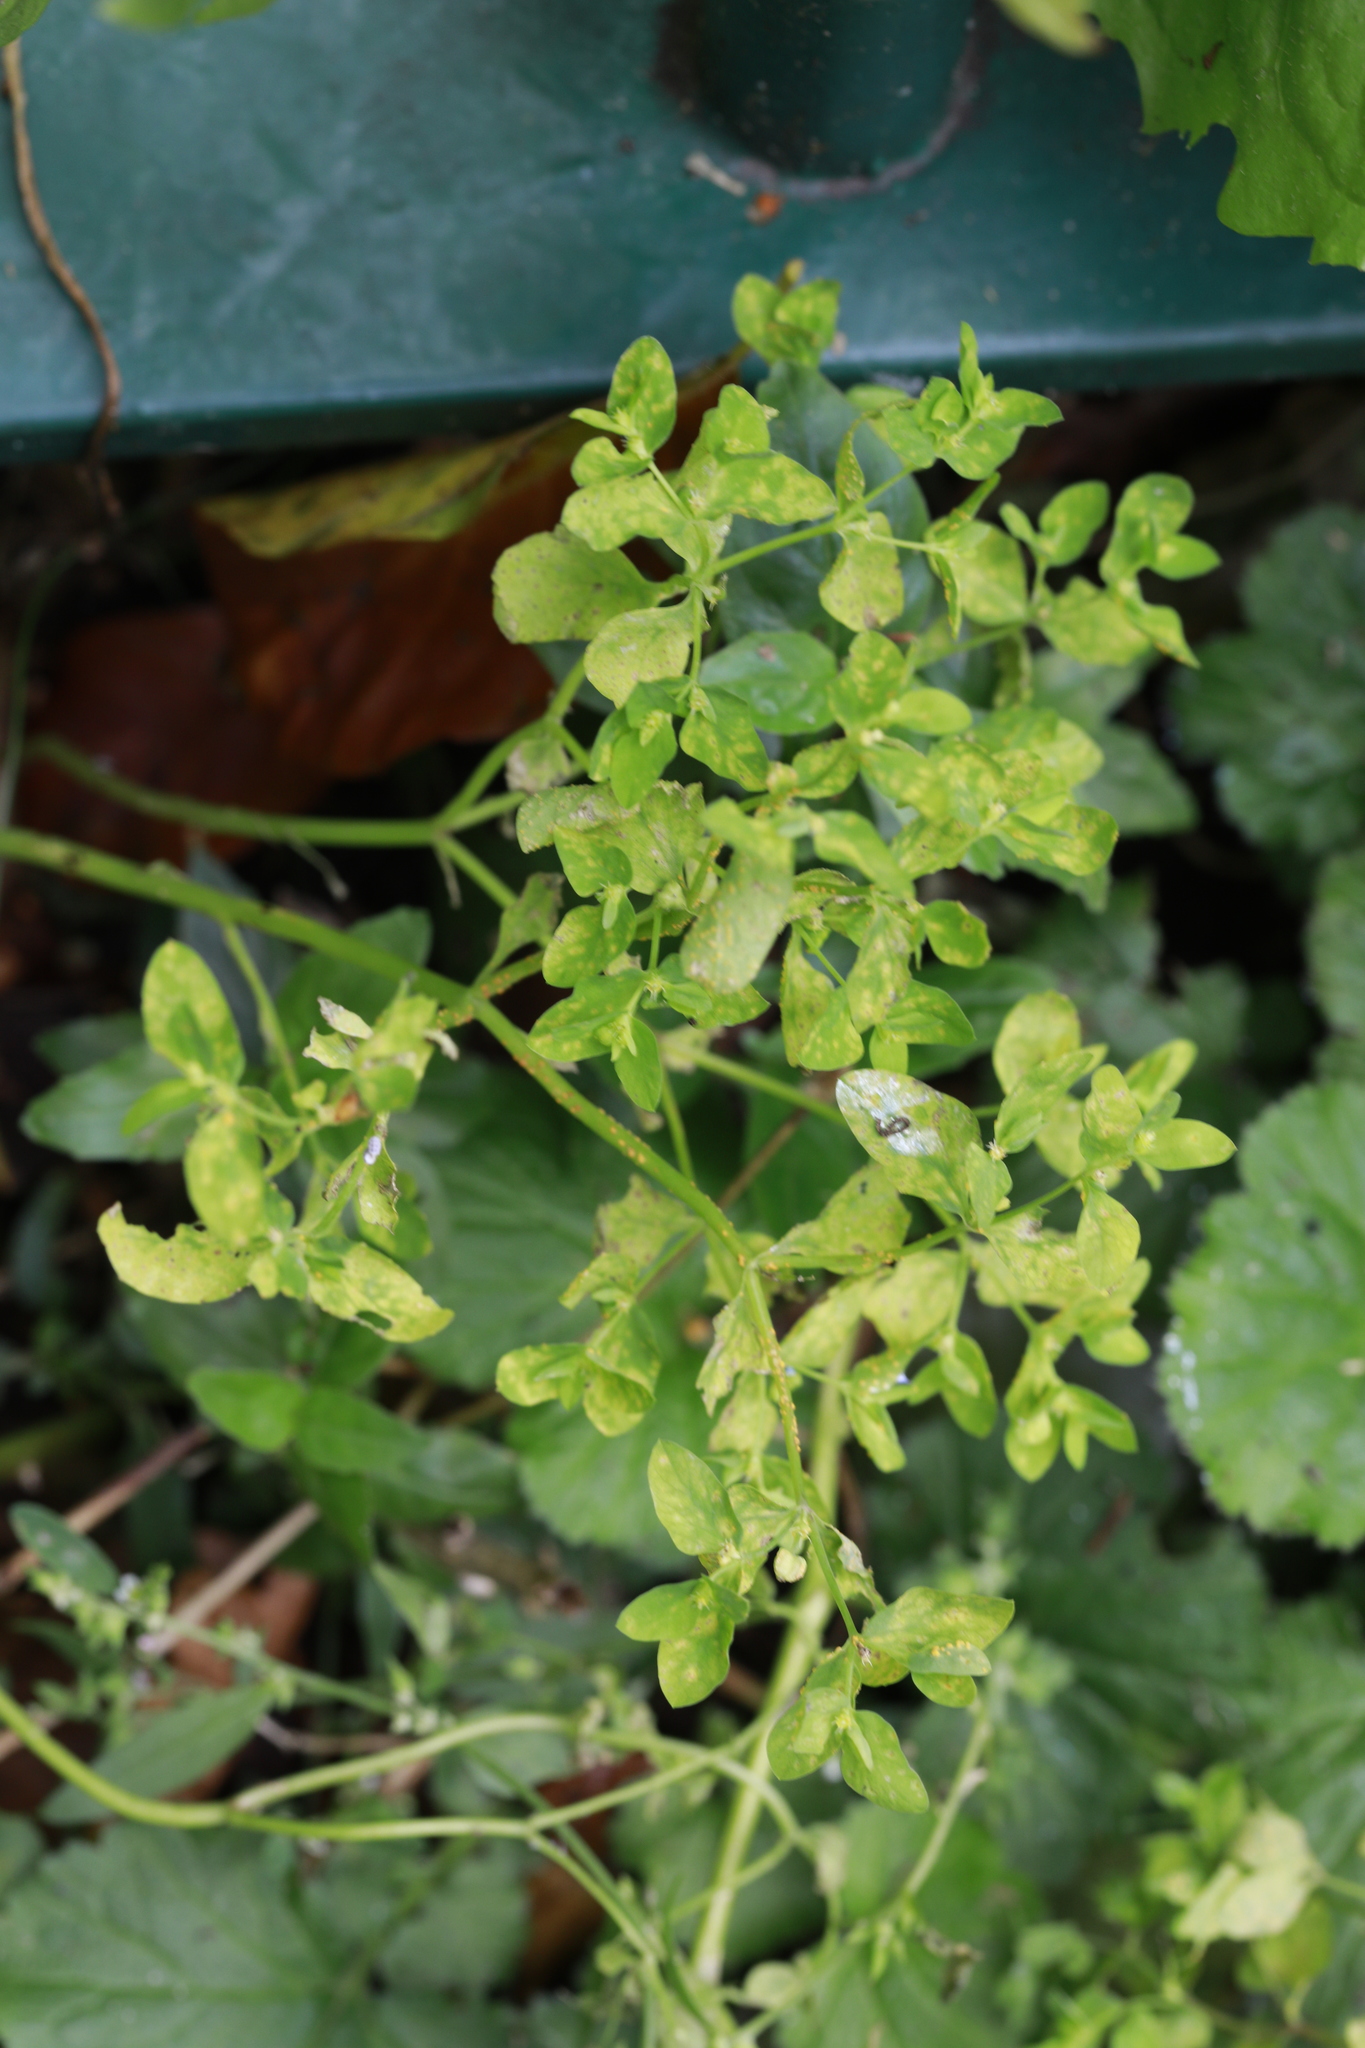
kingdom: Plantae
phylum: Tracheophyta
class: Magnoliopsida
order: Malpighiales
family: Euphorbiaceae
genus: Euphorbia
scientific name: Euphorbia peplus
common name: Petty spurge
